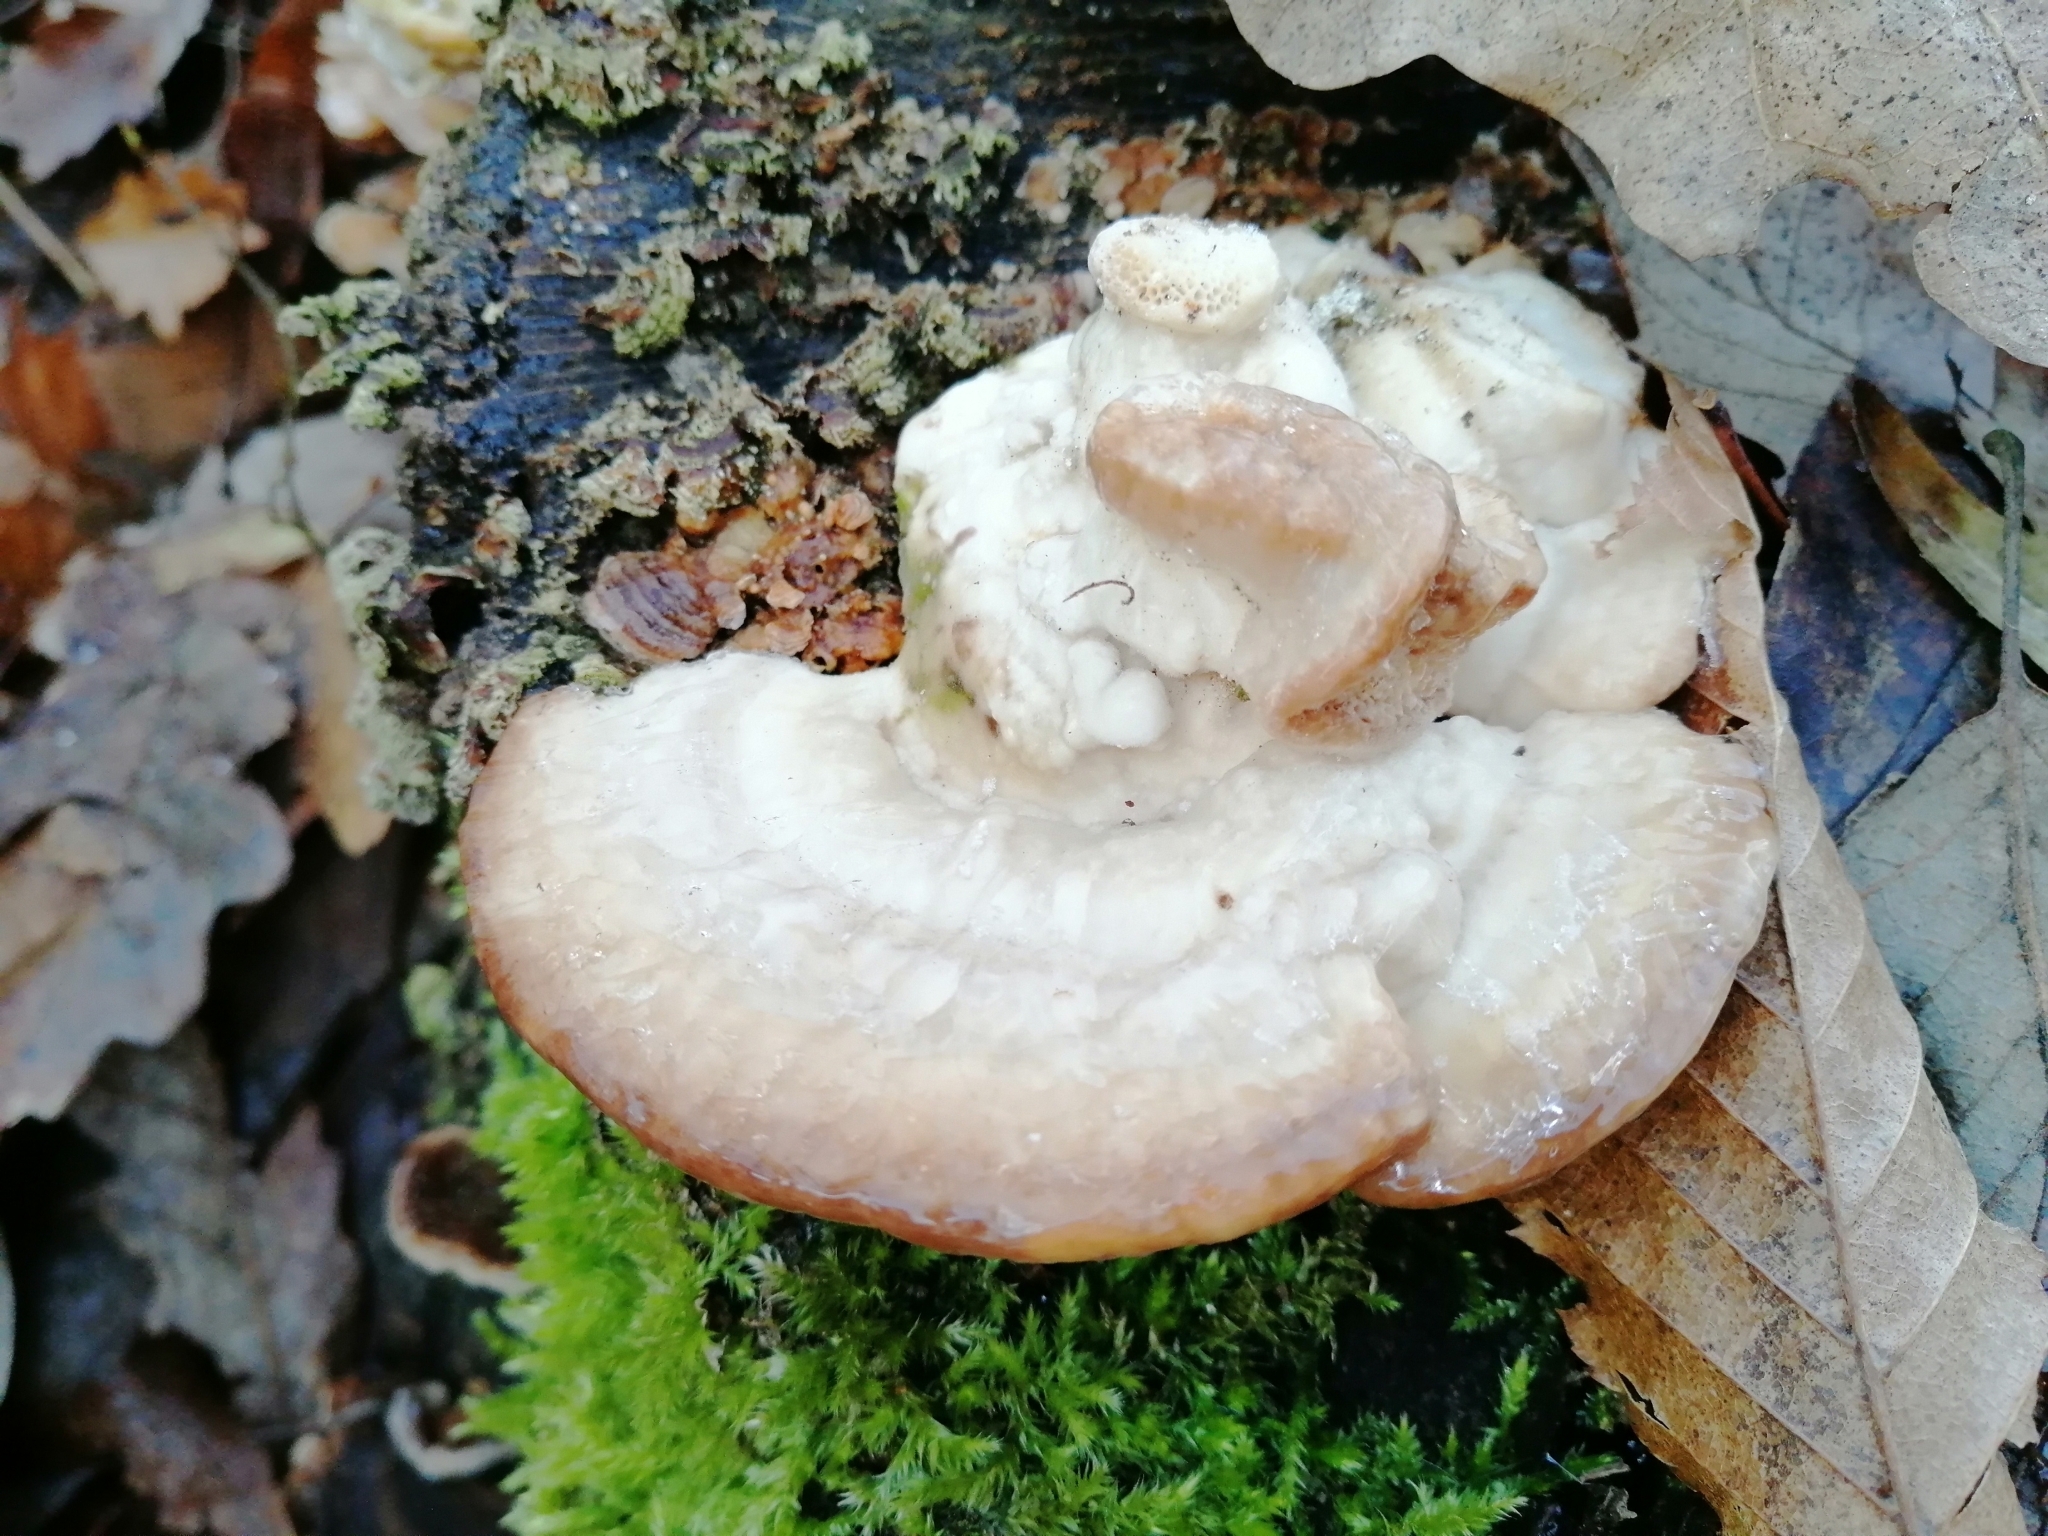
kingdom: Fungi
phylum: Basidiomycota
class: Agaricomycetes
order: Polyporales
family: Polyporaceae
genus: Trametes
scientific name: Trametes gibbosa
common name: Lumpy bracket
